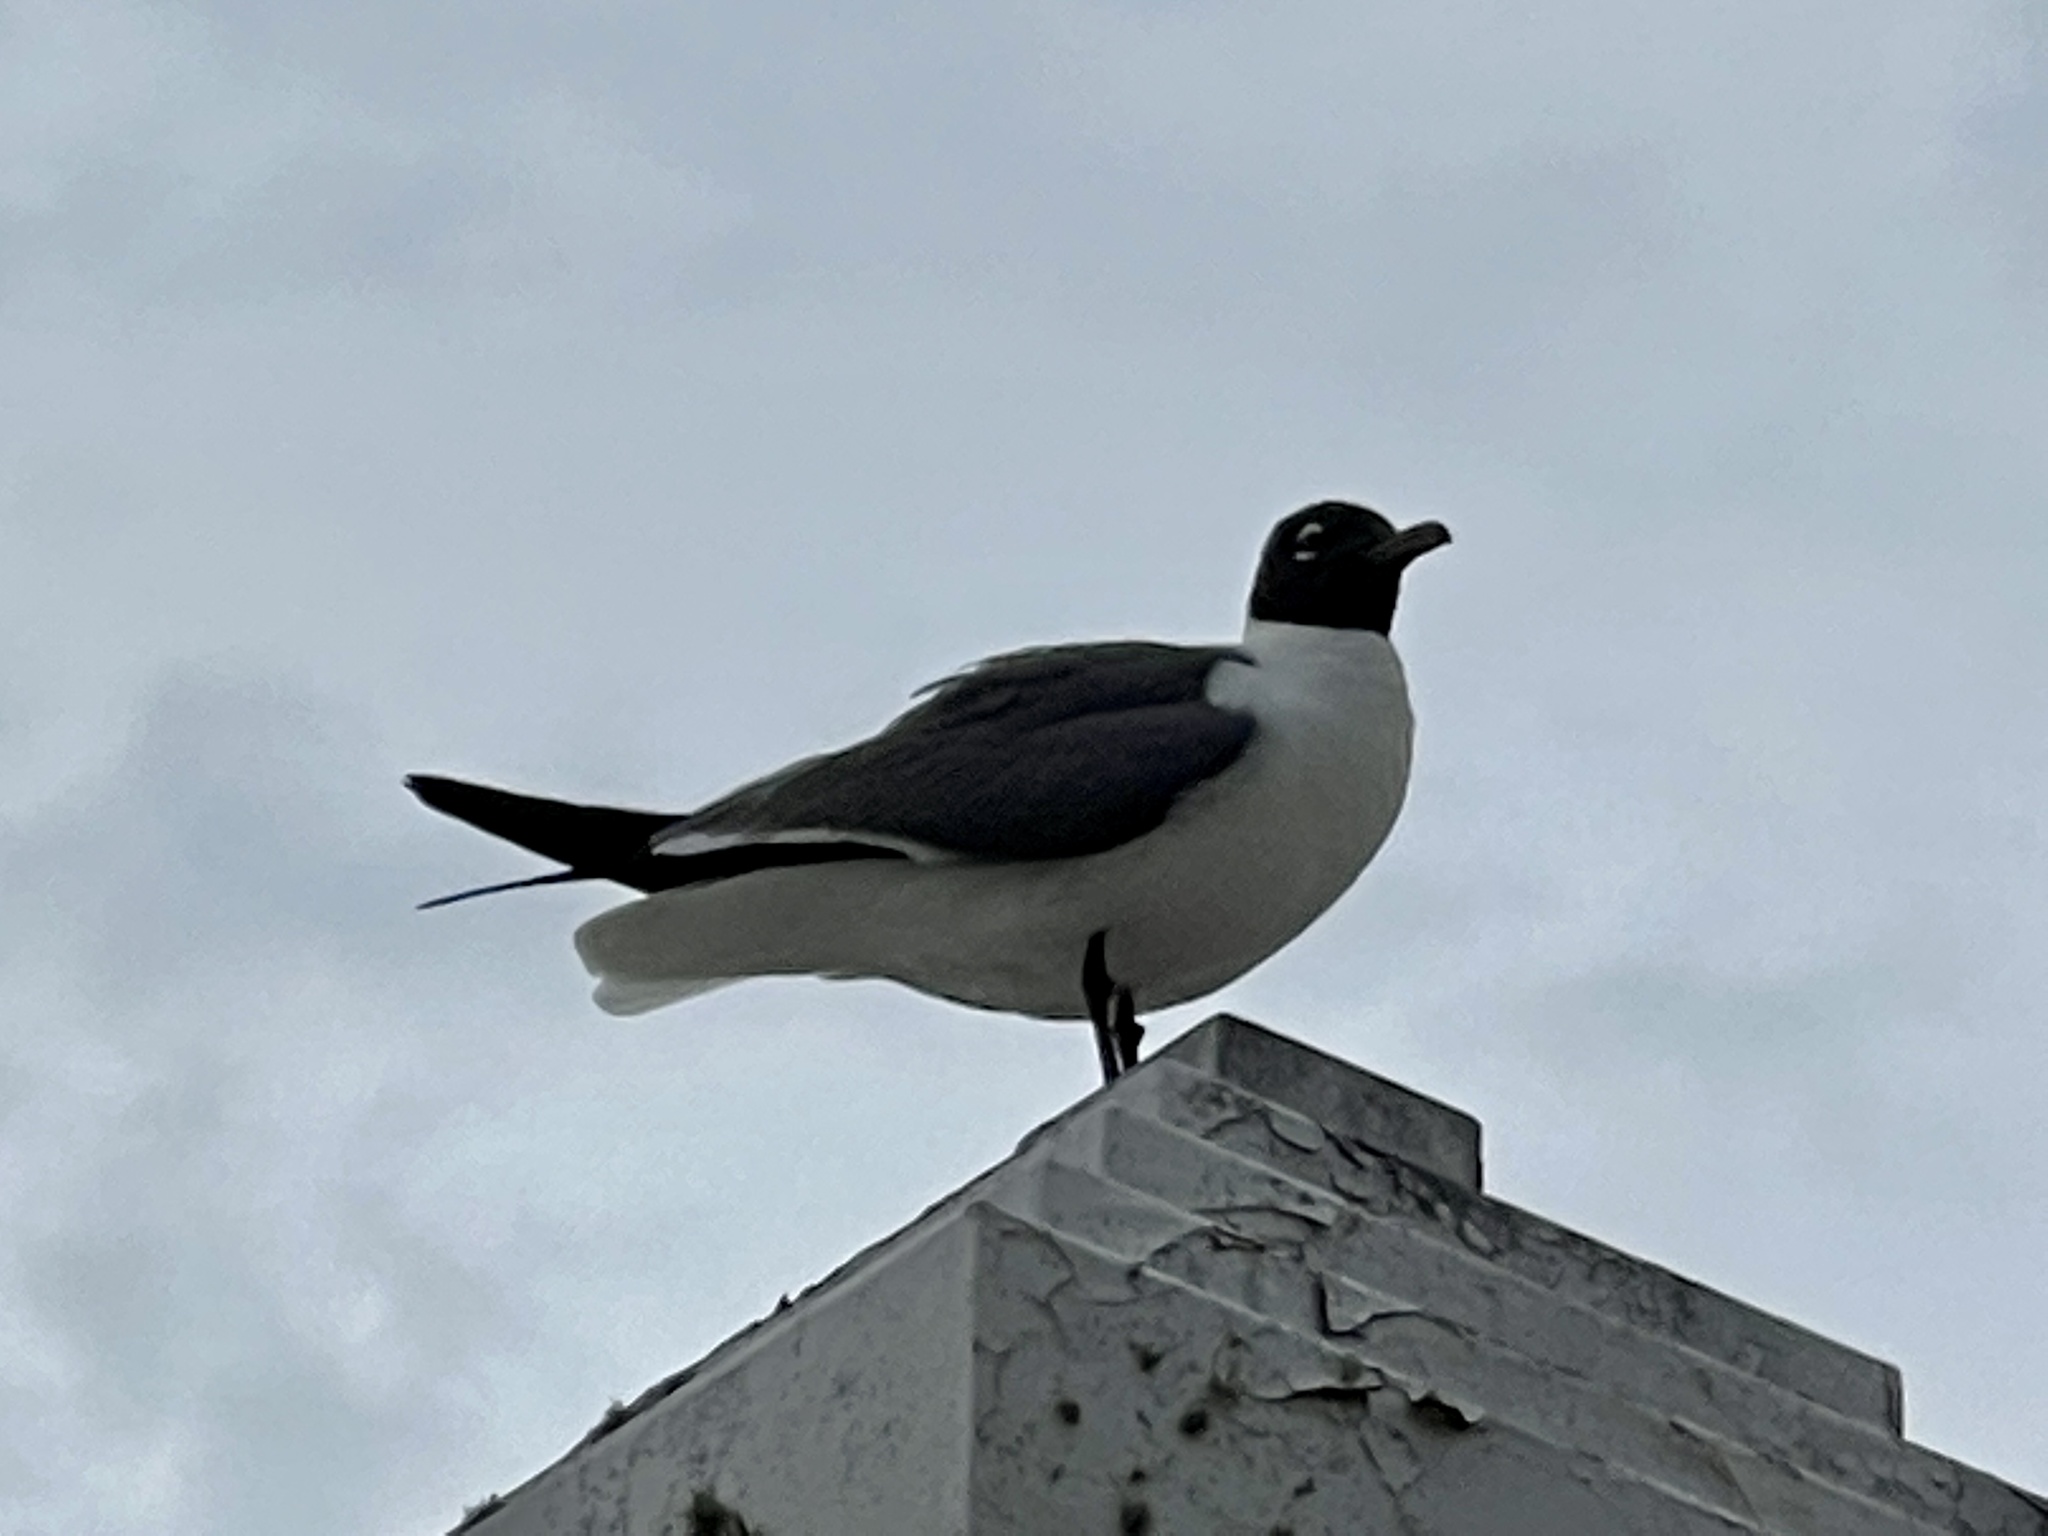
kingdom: Animalia
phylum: Chordata
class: Aves
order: Charadriiformes
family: Laridae
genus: Leucophaeus
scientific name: Leucophaeus atricilla
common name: Laughing gull
